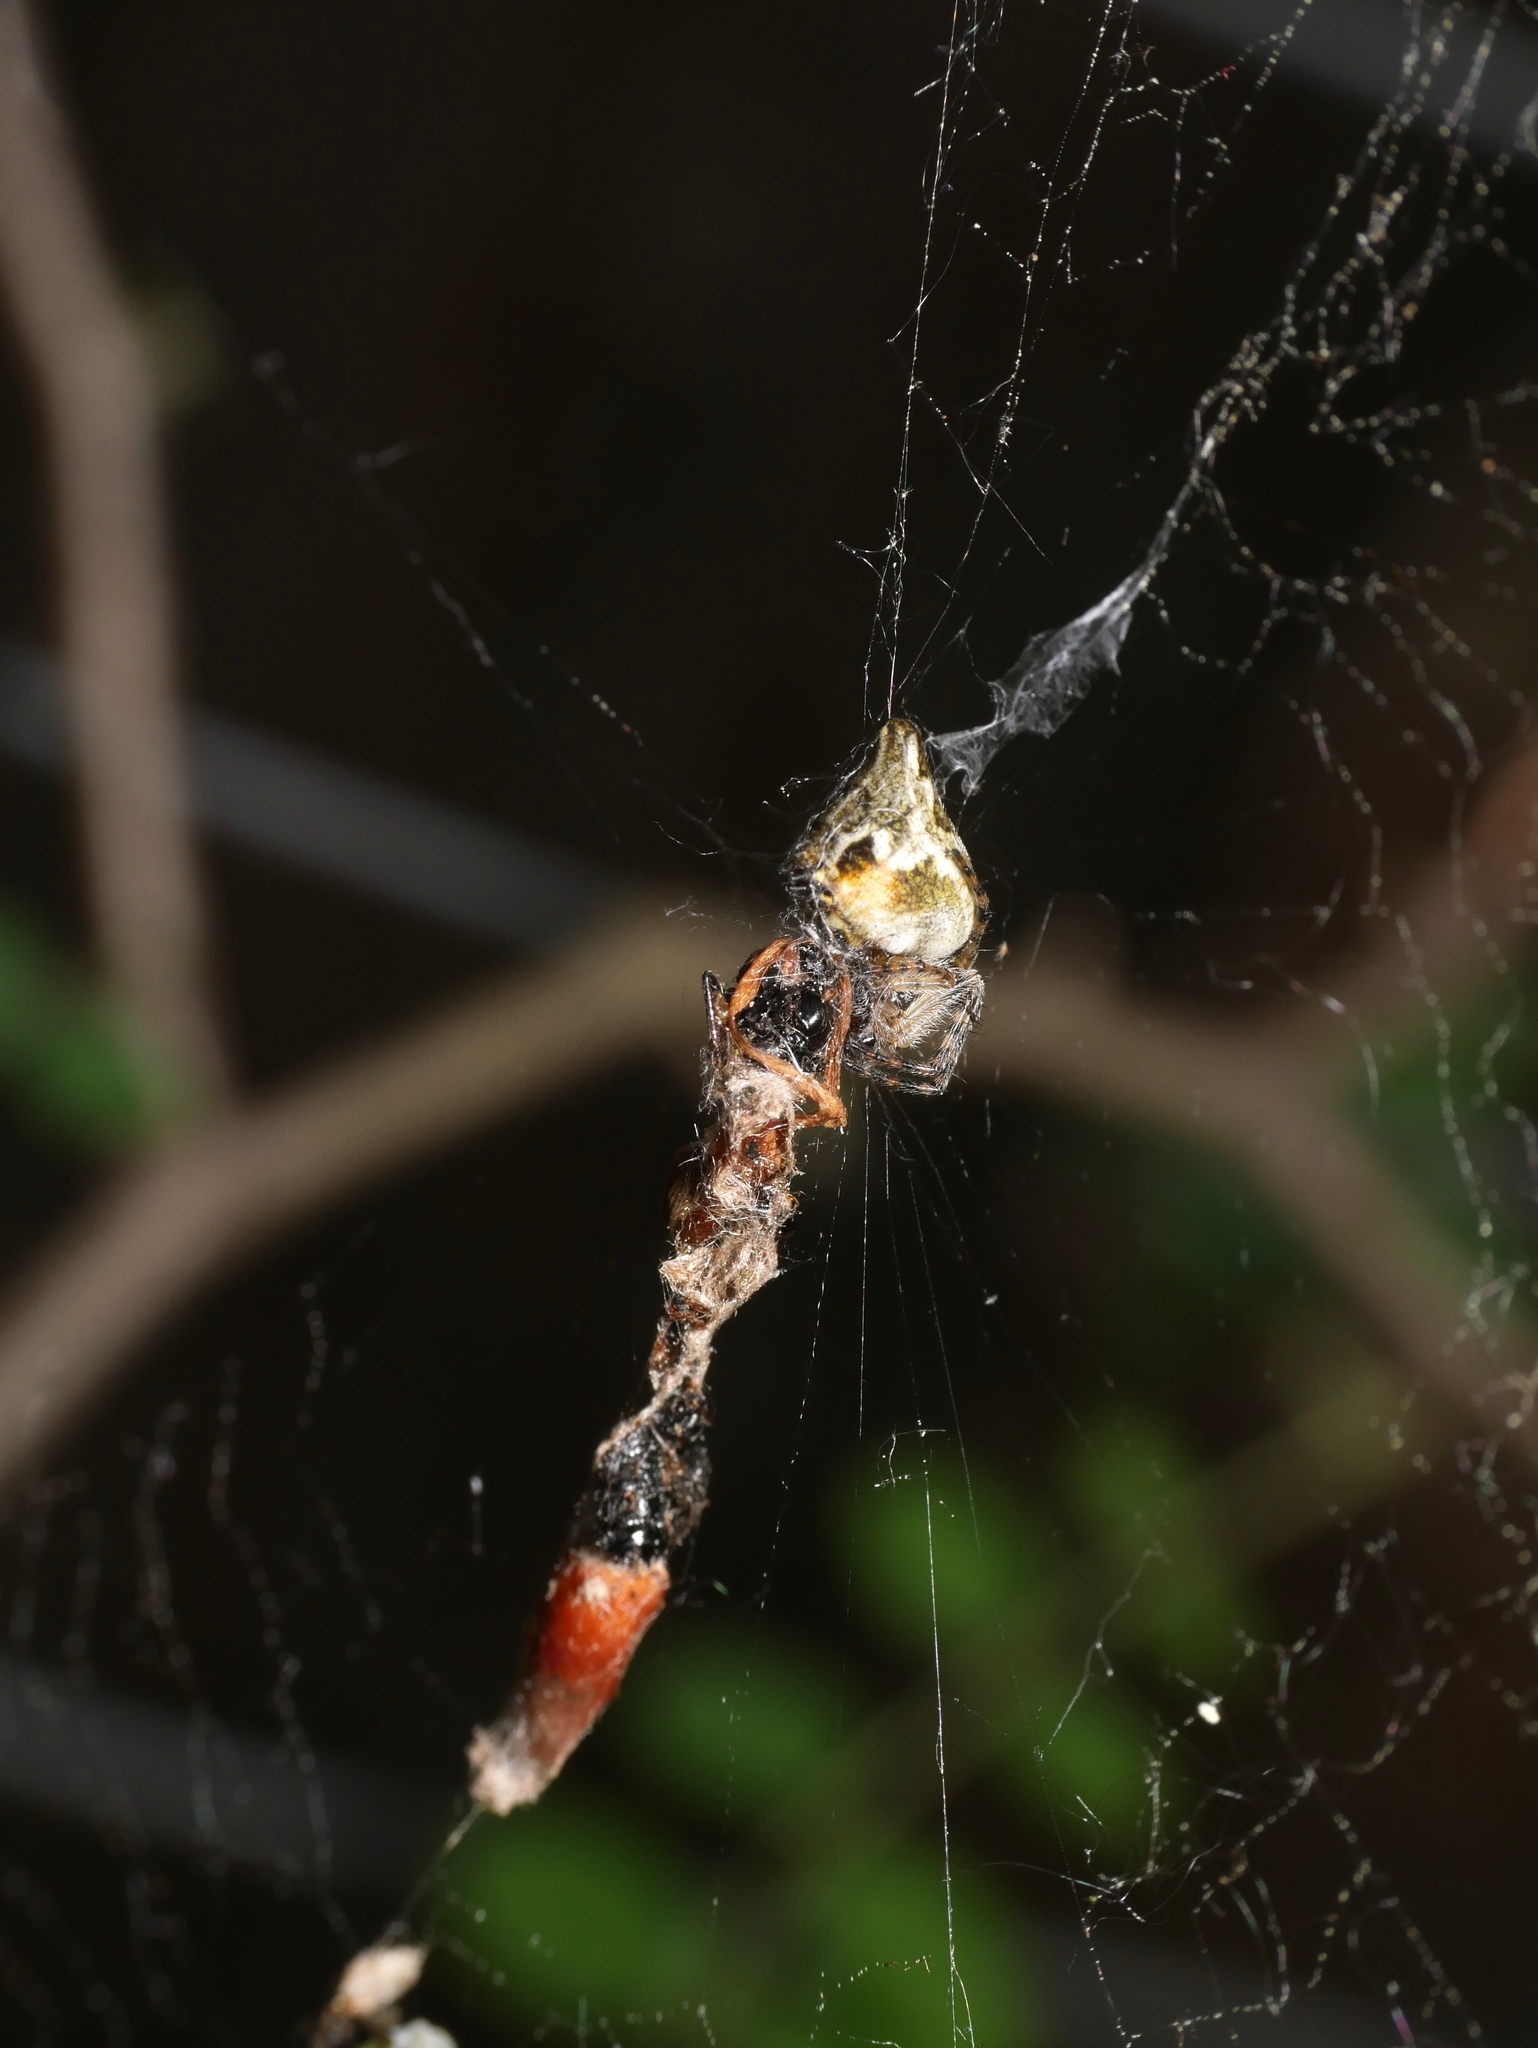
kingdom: Animalia
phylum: Arthropoda
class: Arachnida
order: Araneae
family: Araneidae
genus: Cyclosa
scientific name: Cyclosa conica
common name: Conical trashline orbweaver
